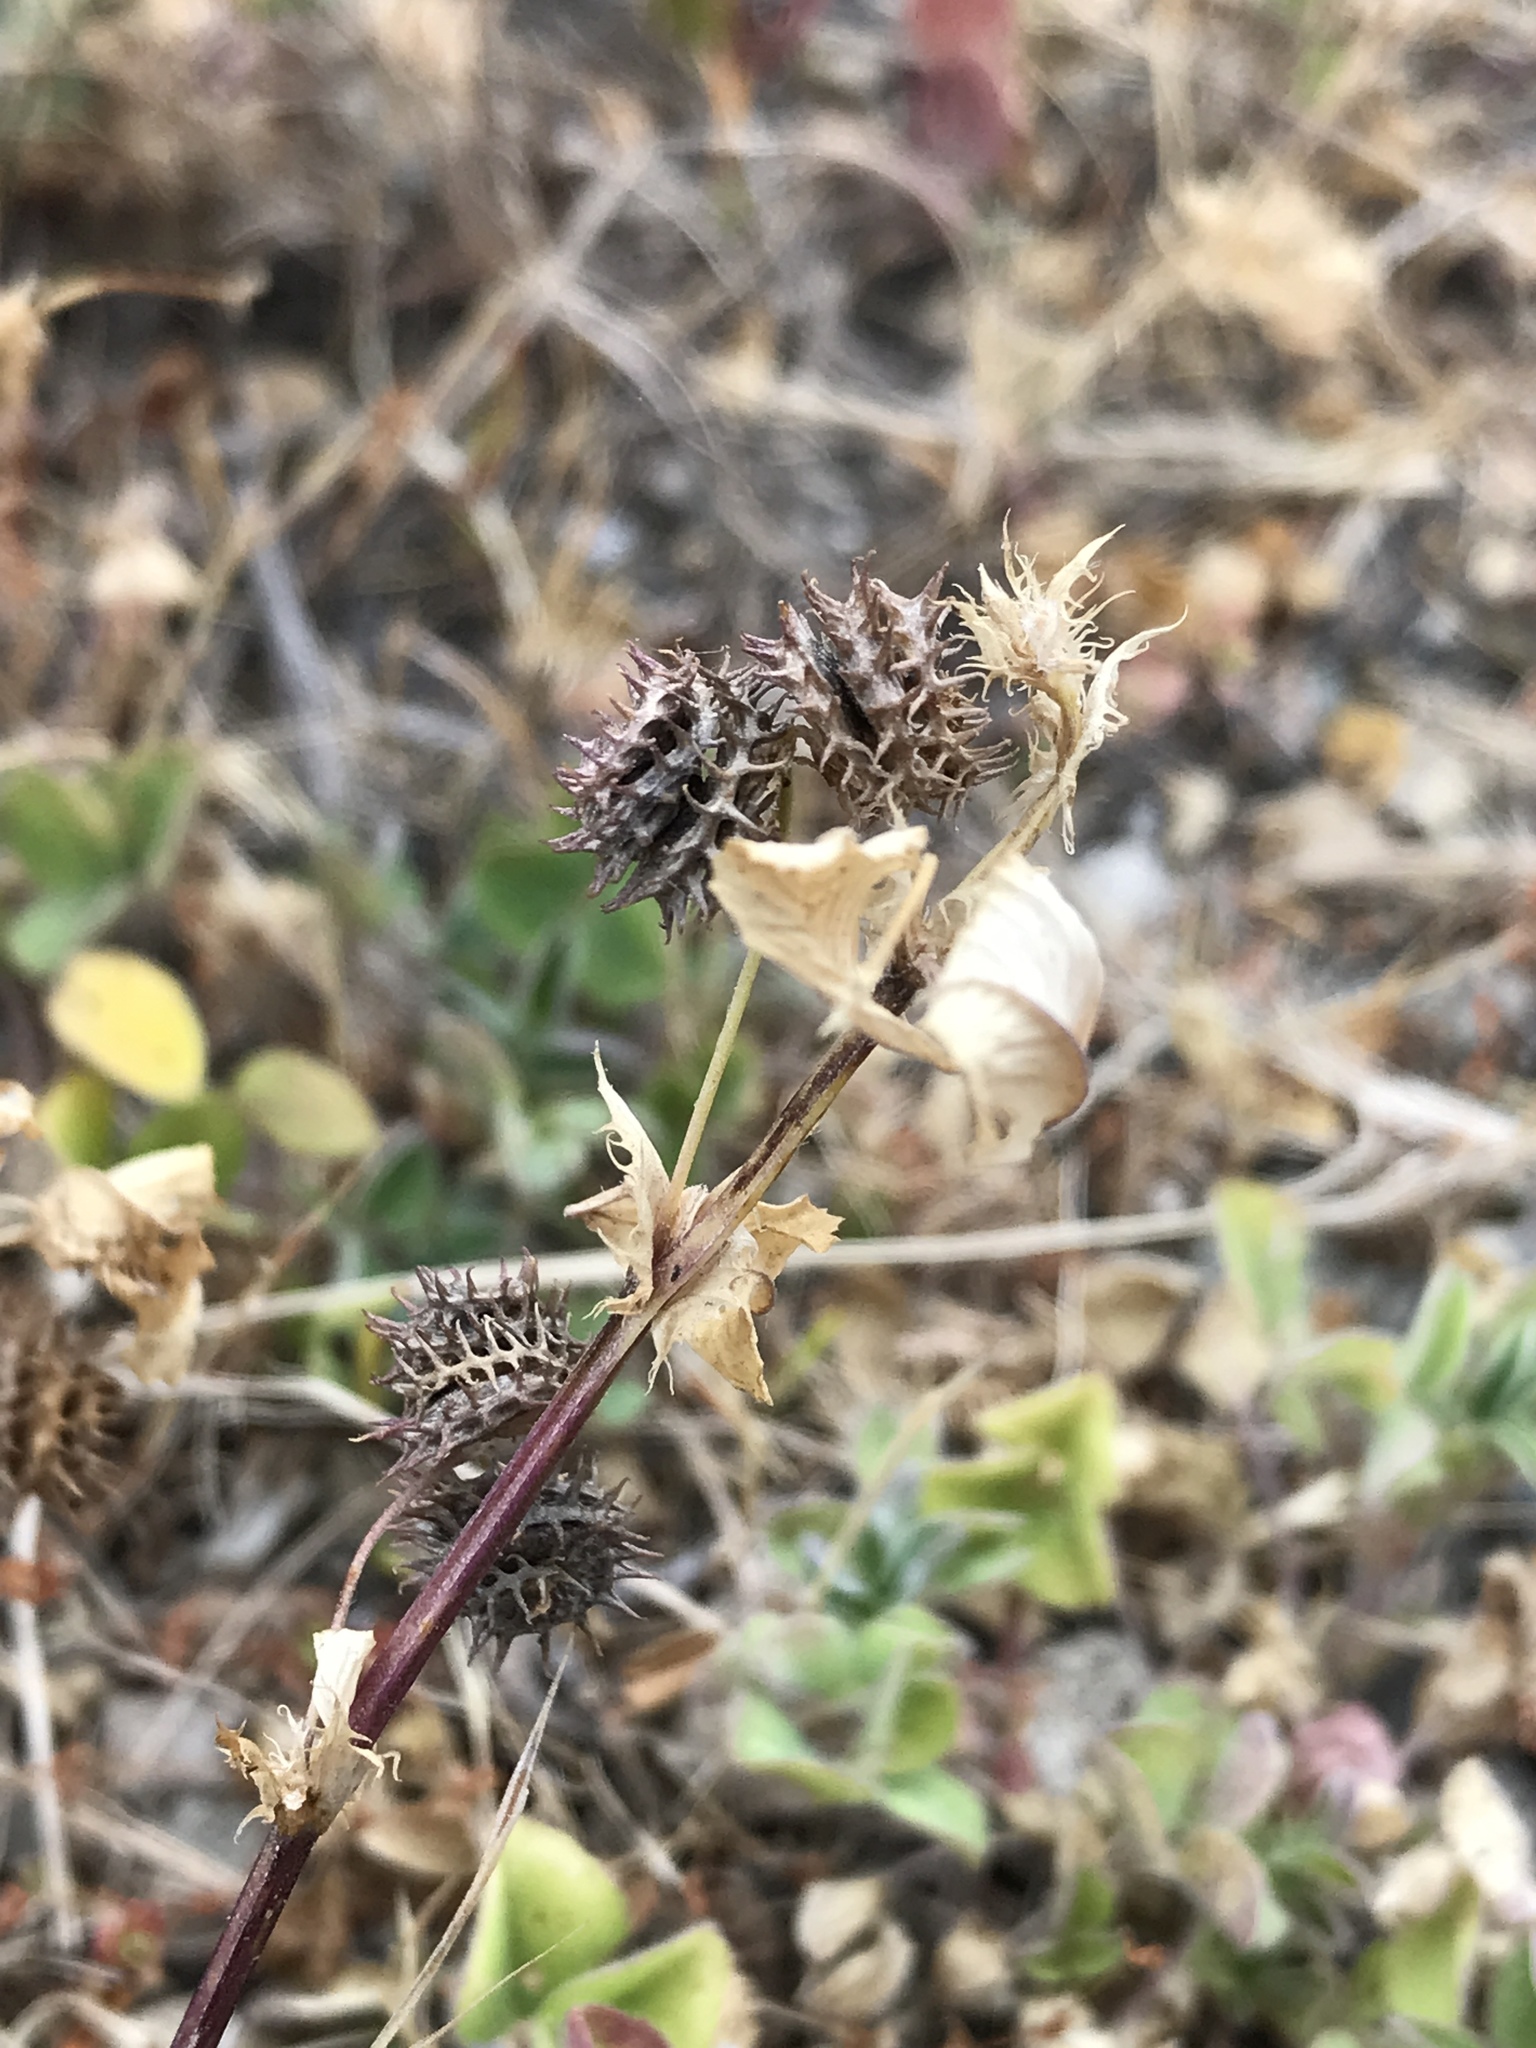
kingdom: Plantae
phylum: Tracheophyta
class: Magnoliopsida
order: Fabales
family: Fabaceae
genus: Medicago
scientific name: Medicago polymorpha
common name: Burclover
